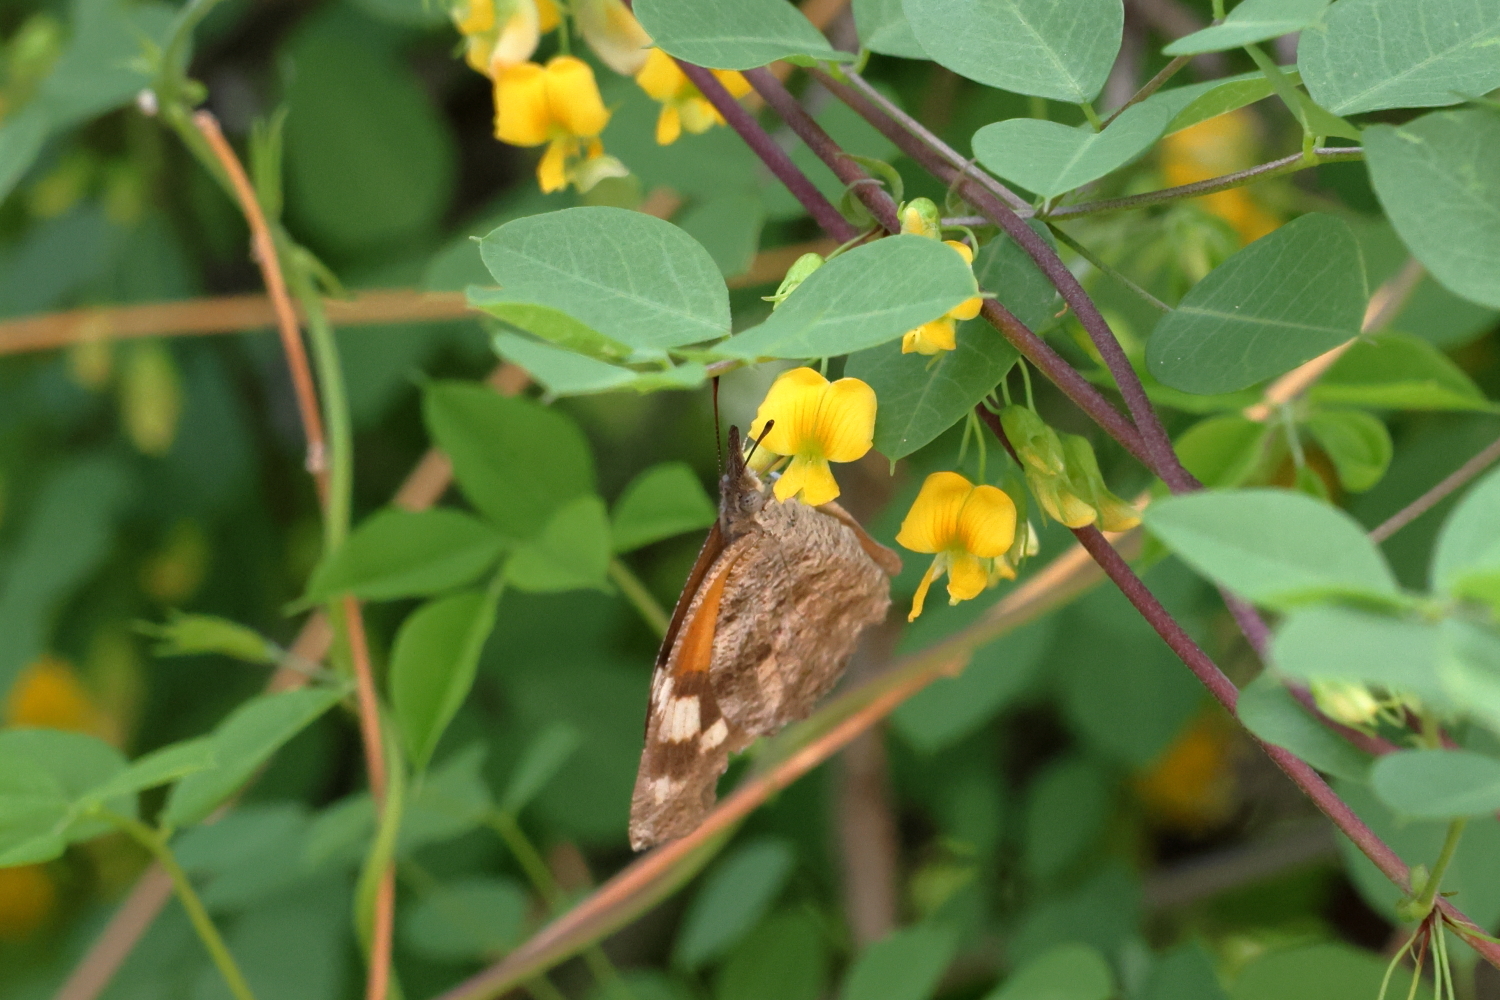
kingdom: Animalia
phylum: Arthropoda
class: Insecta
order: Lepidoptera
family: Nymphalidae
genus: Libytheana
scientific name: Libytheana carinenta
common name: American snout
